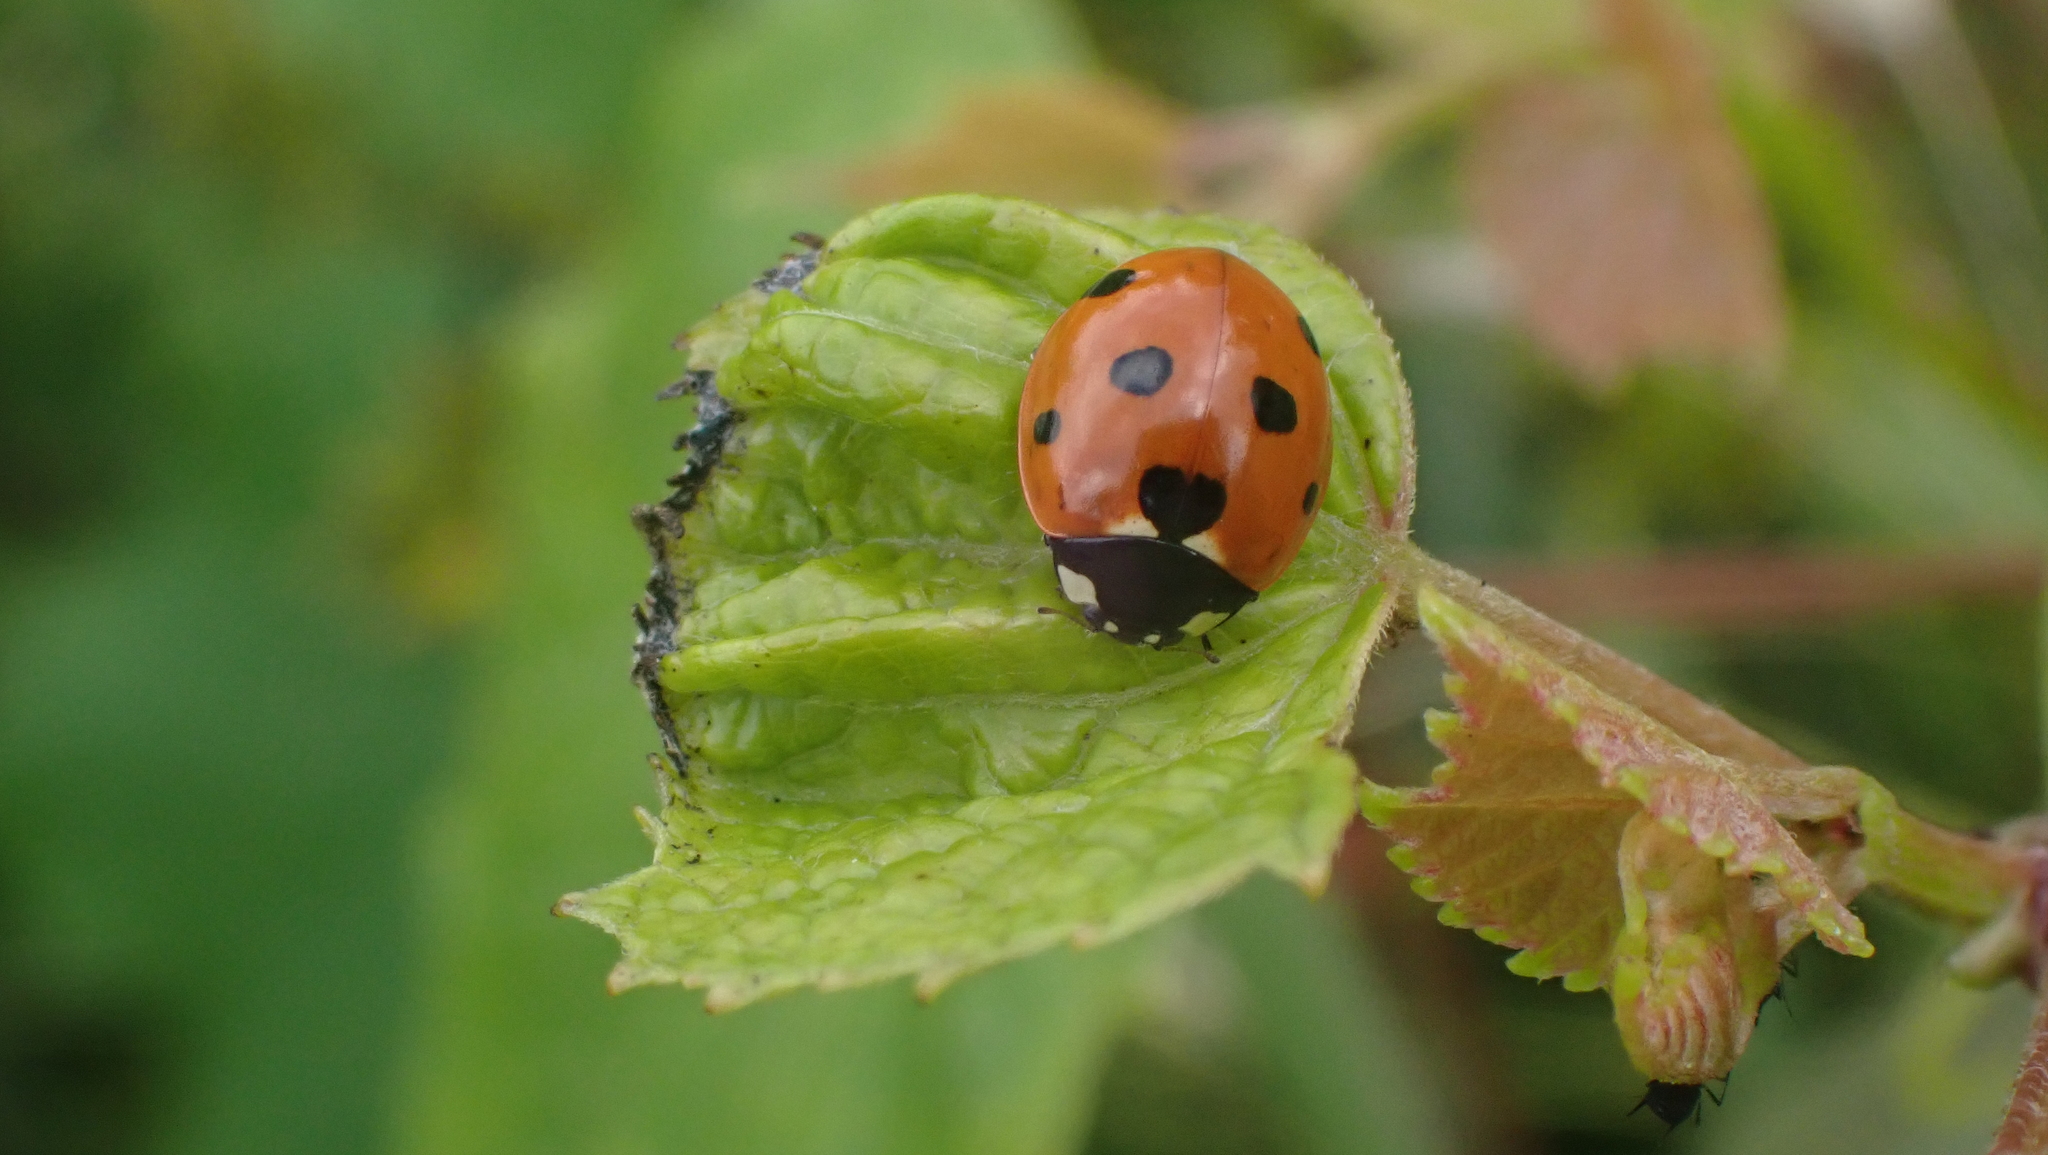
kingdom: Animalia
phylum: Arthropoda
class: Insecta
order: Coleoptera
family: Coccinellidae
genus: Coccinella
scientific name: Coccinella septempunctata
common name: Sevenspotted lady beetle
